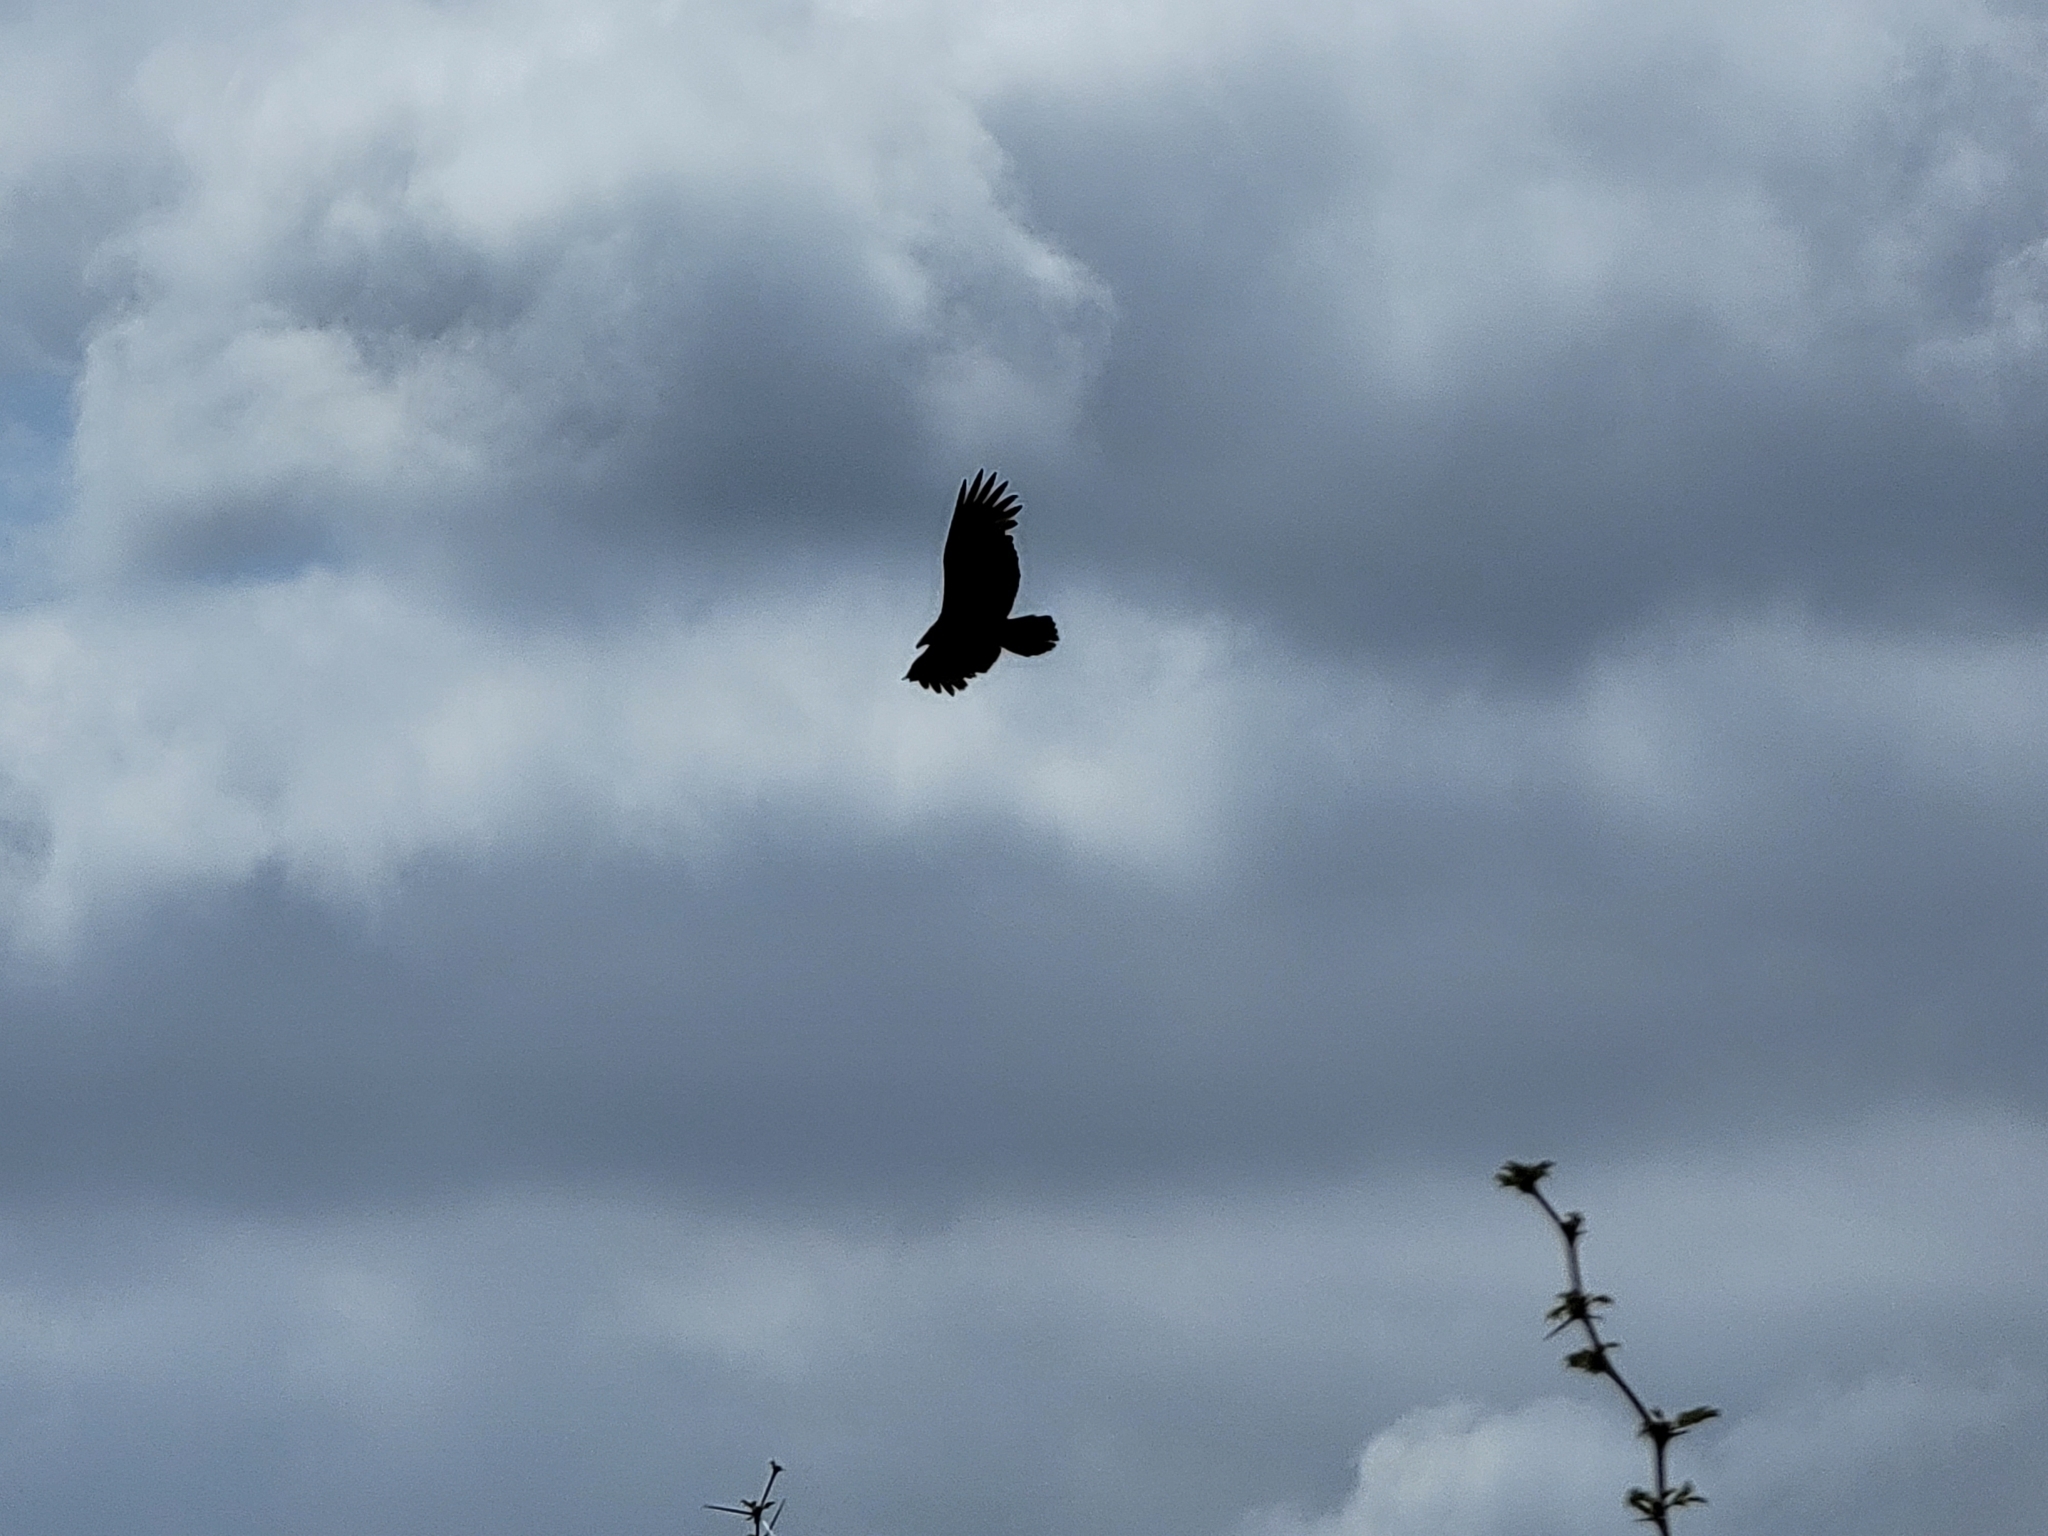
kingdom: Animalia
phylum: Chordata
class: Aves
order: Accipitriformes
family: Cathartidae
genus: Cathartes
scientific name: Cathartes aura
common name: Turkey vulture
